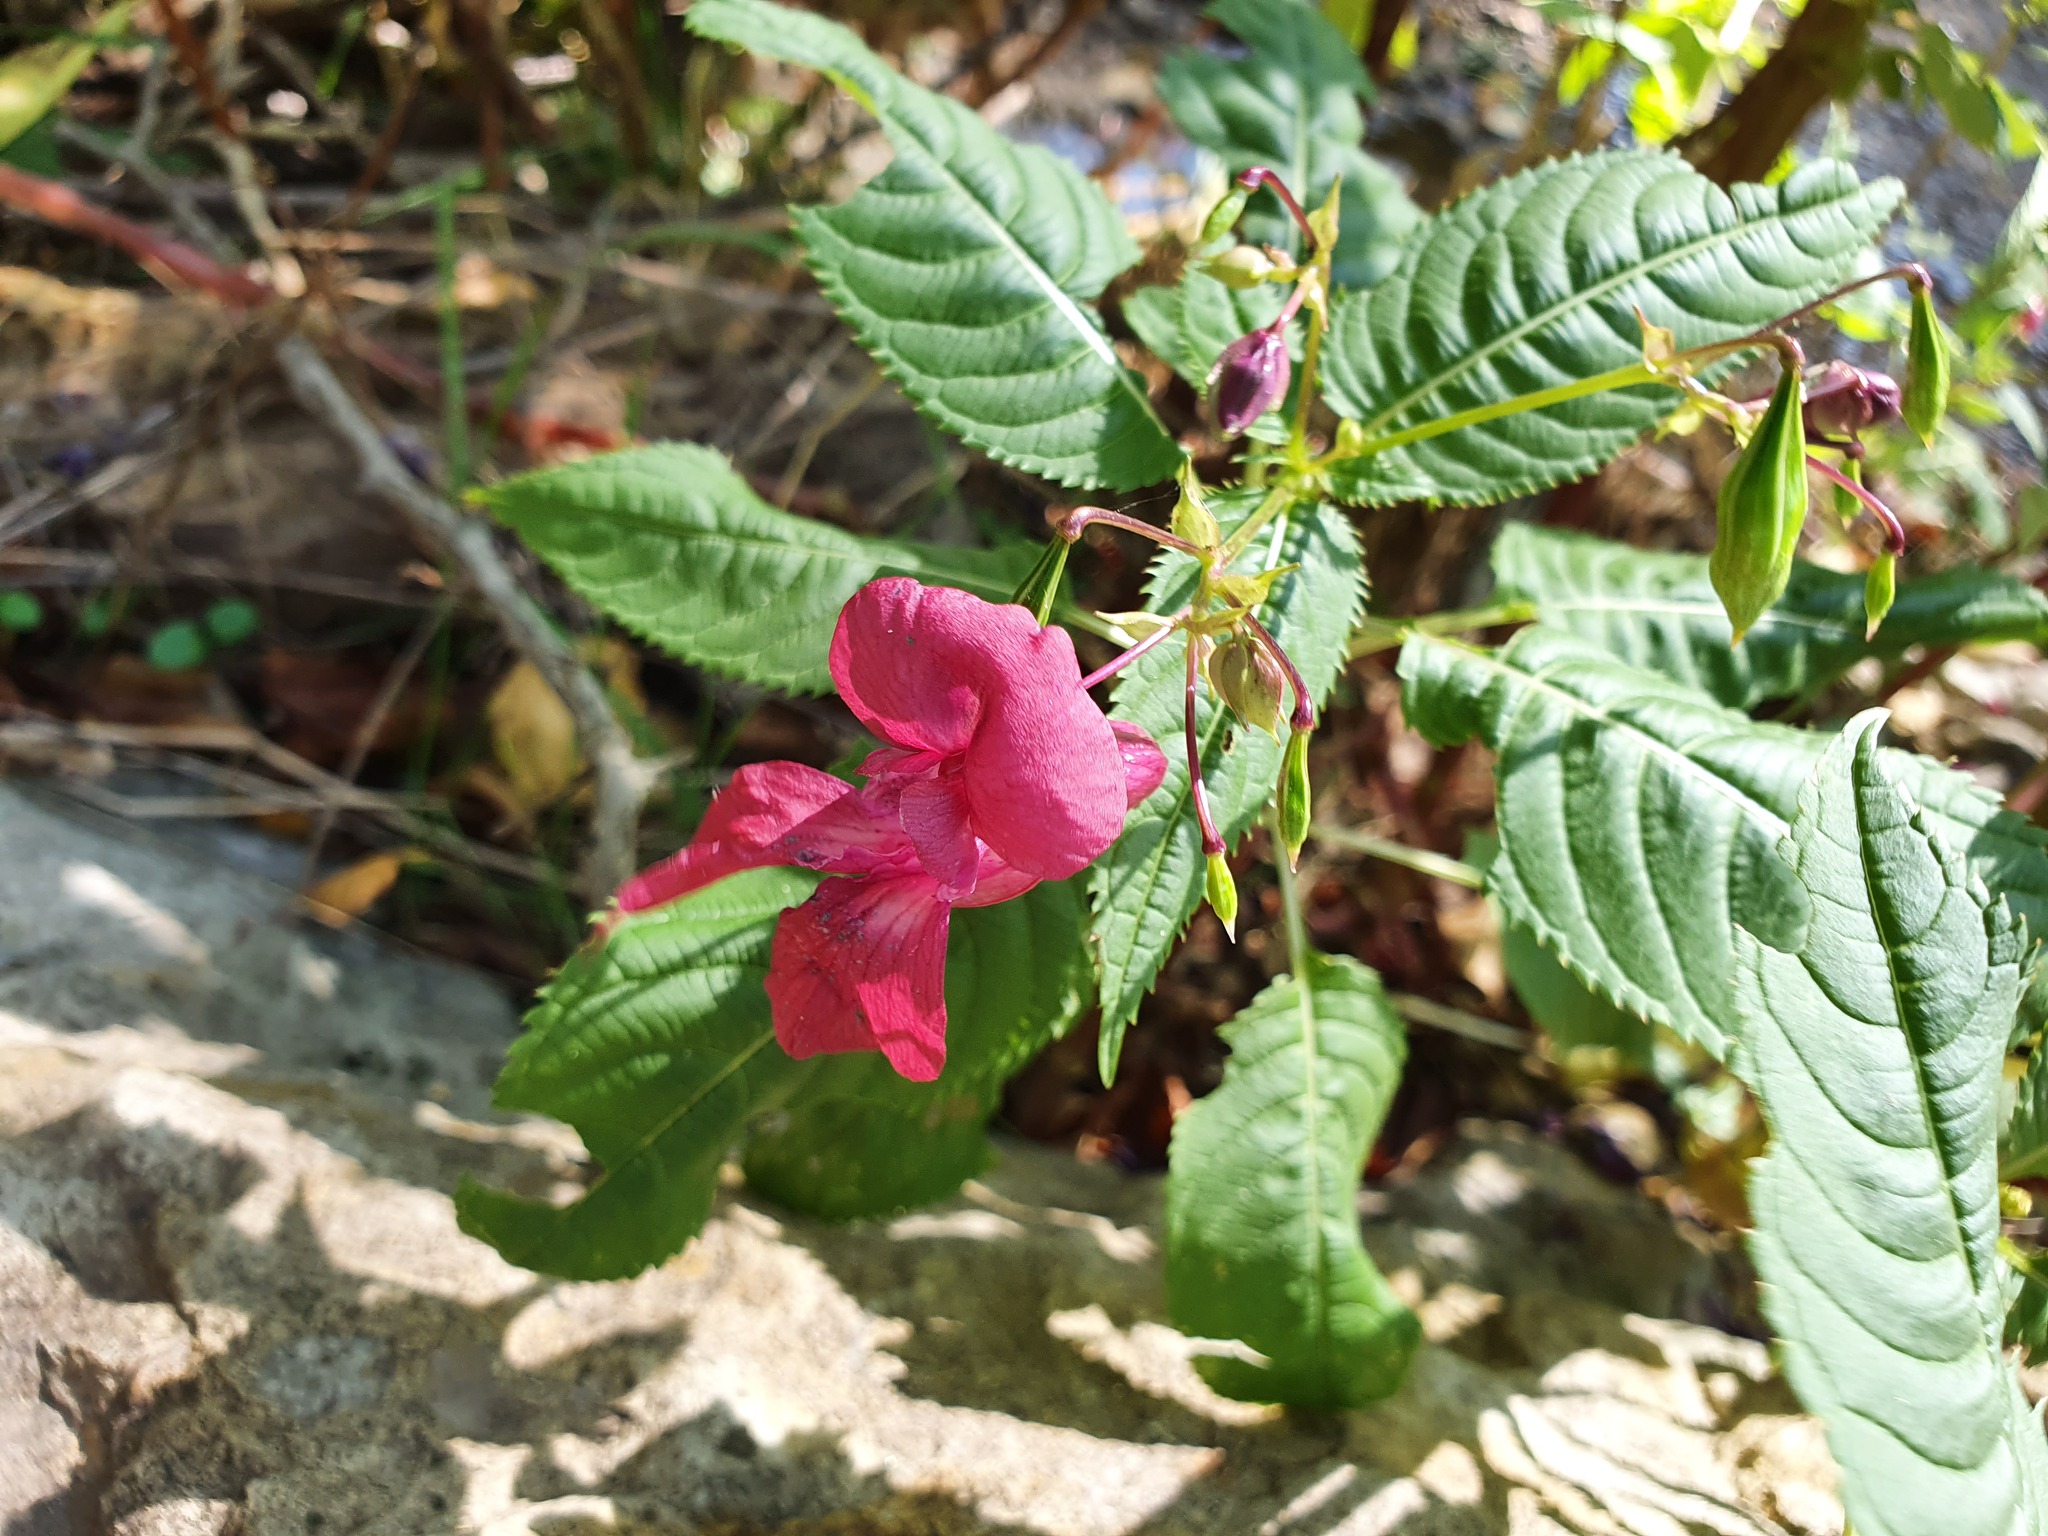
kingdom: Plantae
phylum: Tracheophyta
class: Magnoliopsida
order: Ericales
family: Balsaminaceae
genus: Impatiens
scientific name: Impatiens glandulifera
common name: Himalayan balsam
